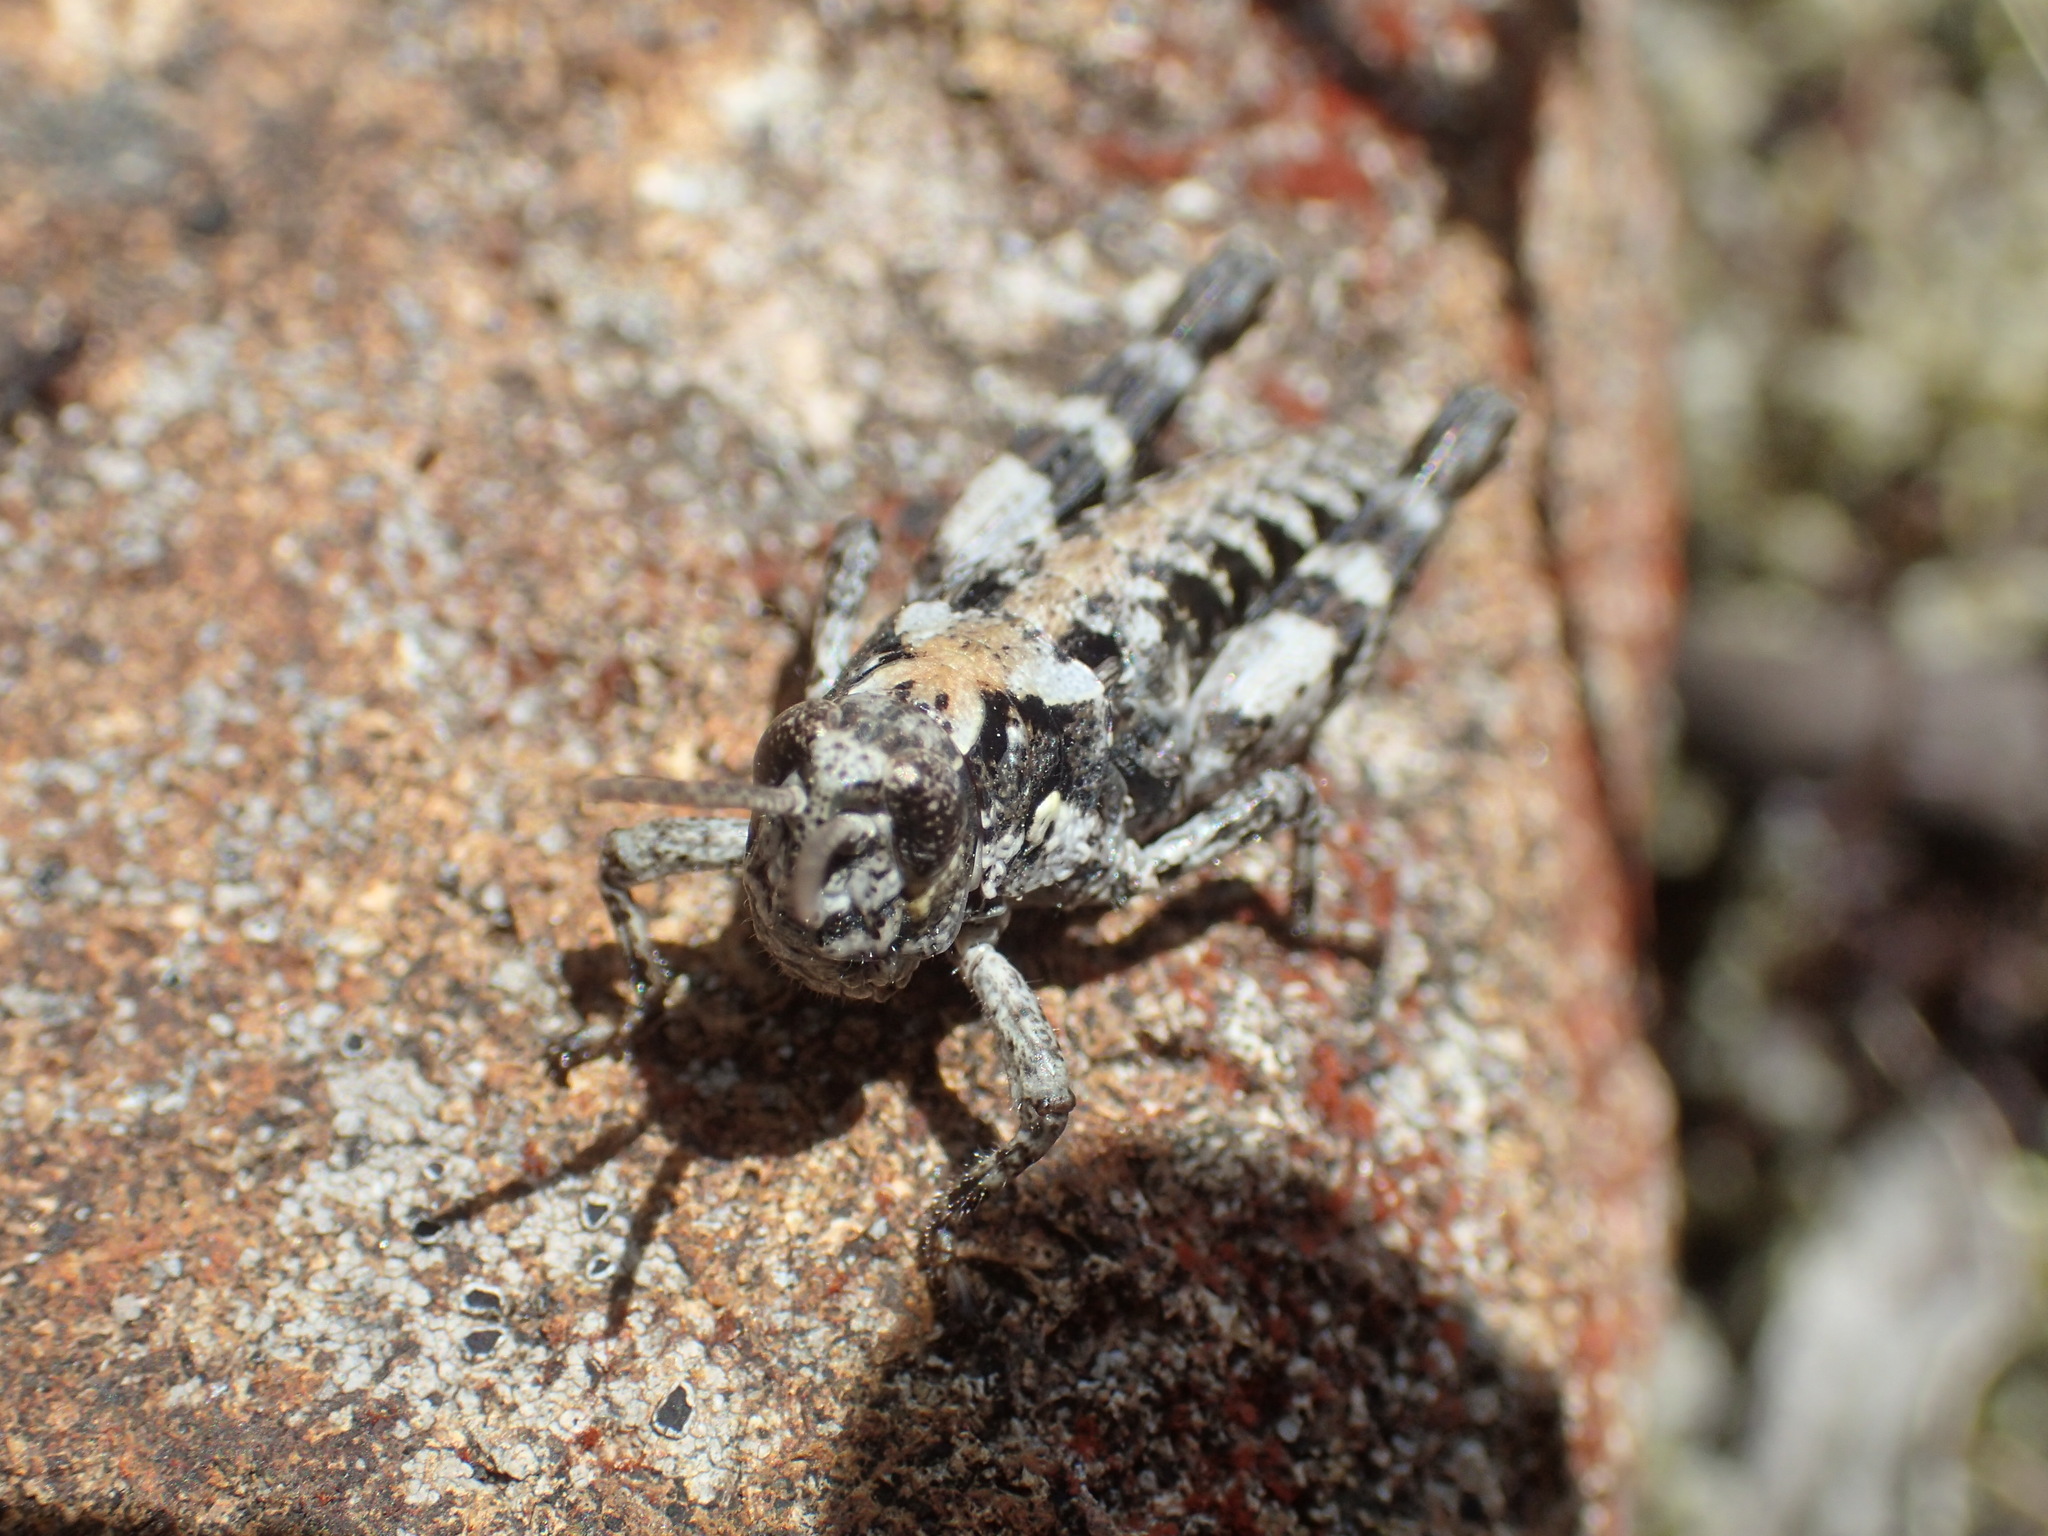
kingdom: Animalia
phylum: Arthropoda
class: Insecta
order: Orthoptera
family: Acrididae
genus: Tasmaniacris
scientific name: Tasmaniacris tasmaniensis
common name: Tasmanian grasshopper
